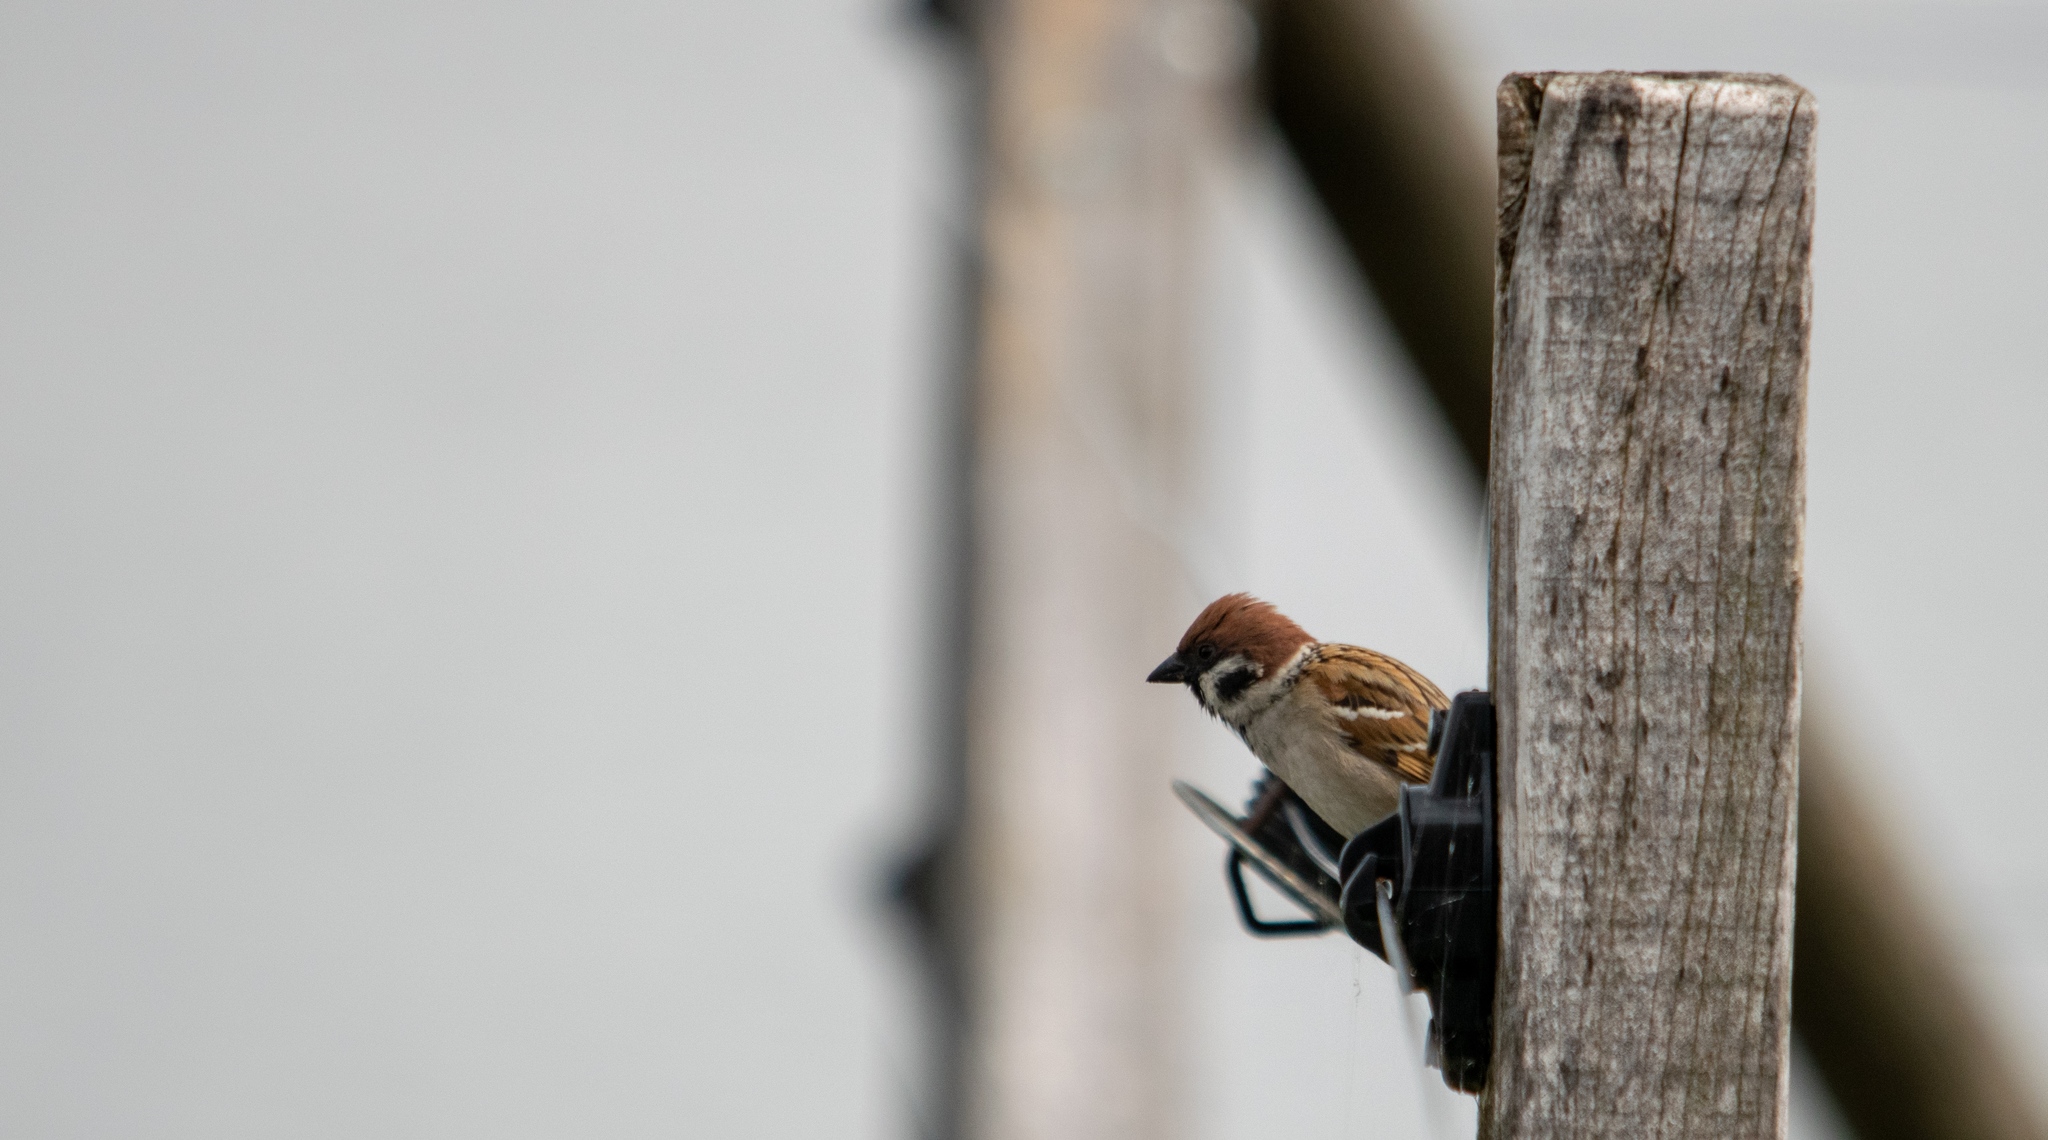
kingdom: Animalia
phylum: Chordata
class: Aves
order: Passeriformes
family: Passeridae
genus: Passer
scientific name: Passer montanus
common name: Eurasian tree sparrow
